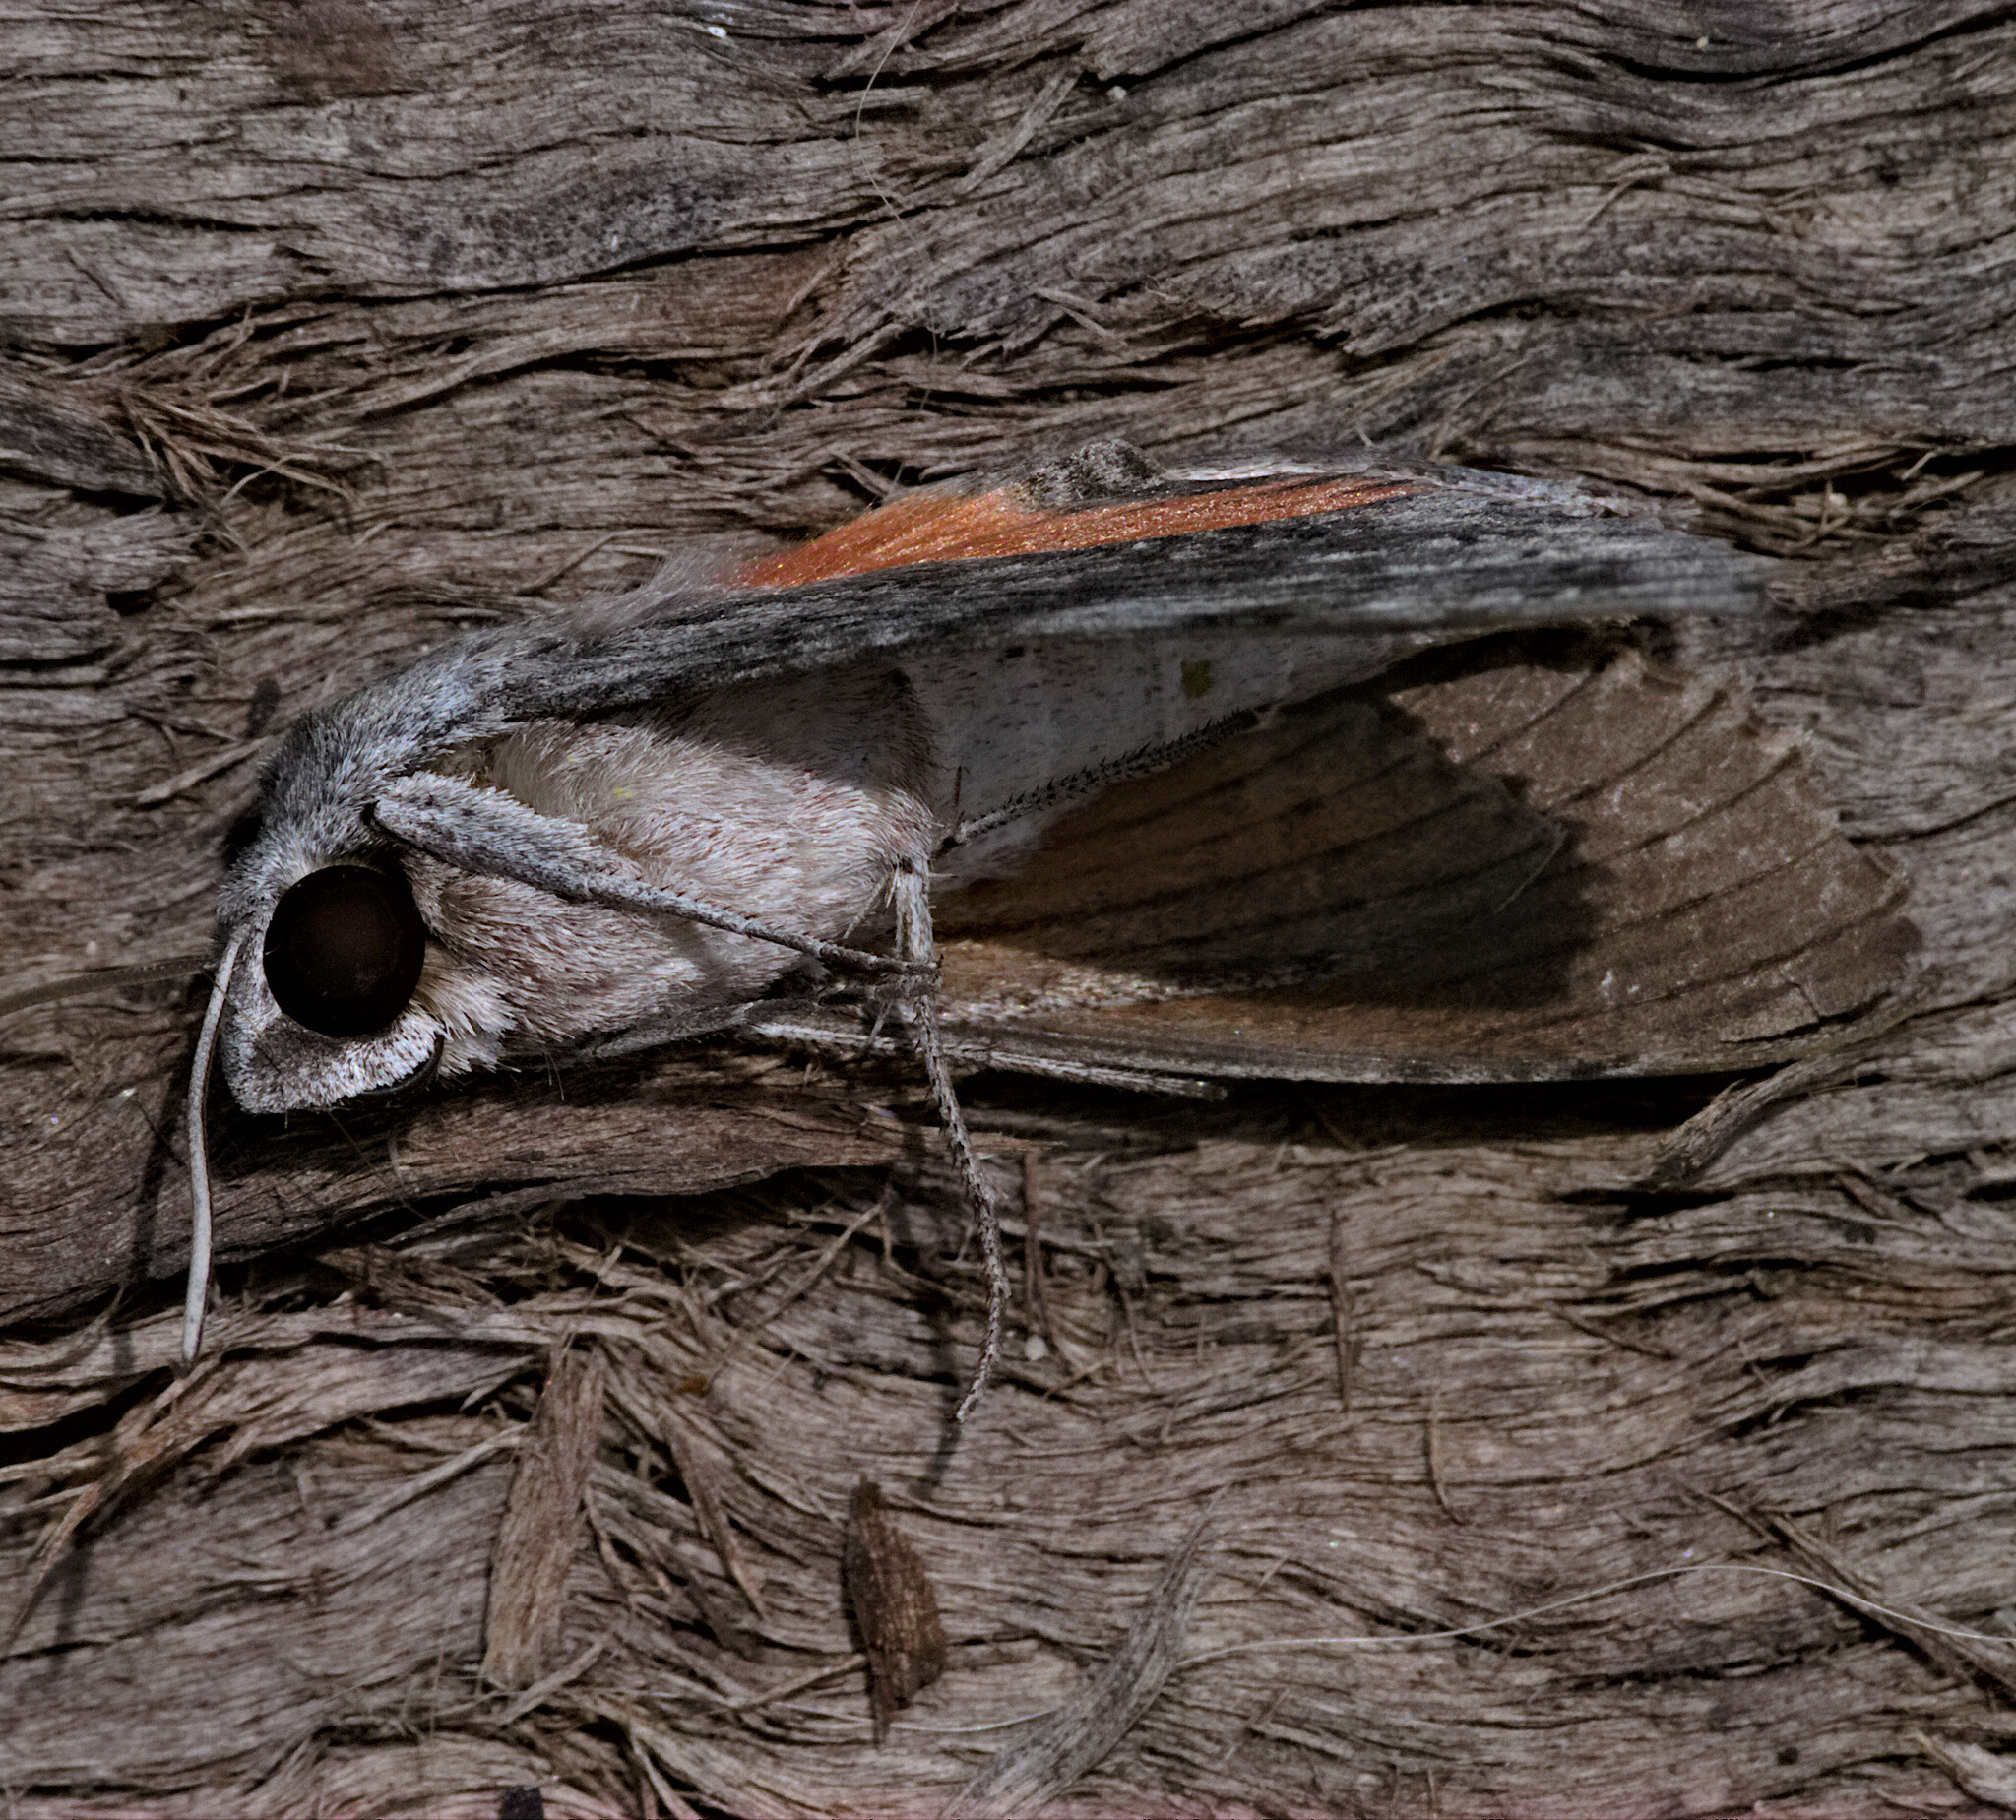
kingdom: Animalia
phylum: Arthropoda
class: Insecta
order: Lepidoptera
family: Sphingidae
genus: Erinnyis
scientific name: Erinnyis obscura
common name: Obscure sphinx
